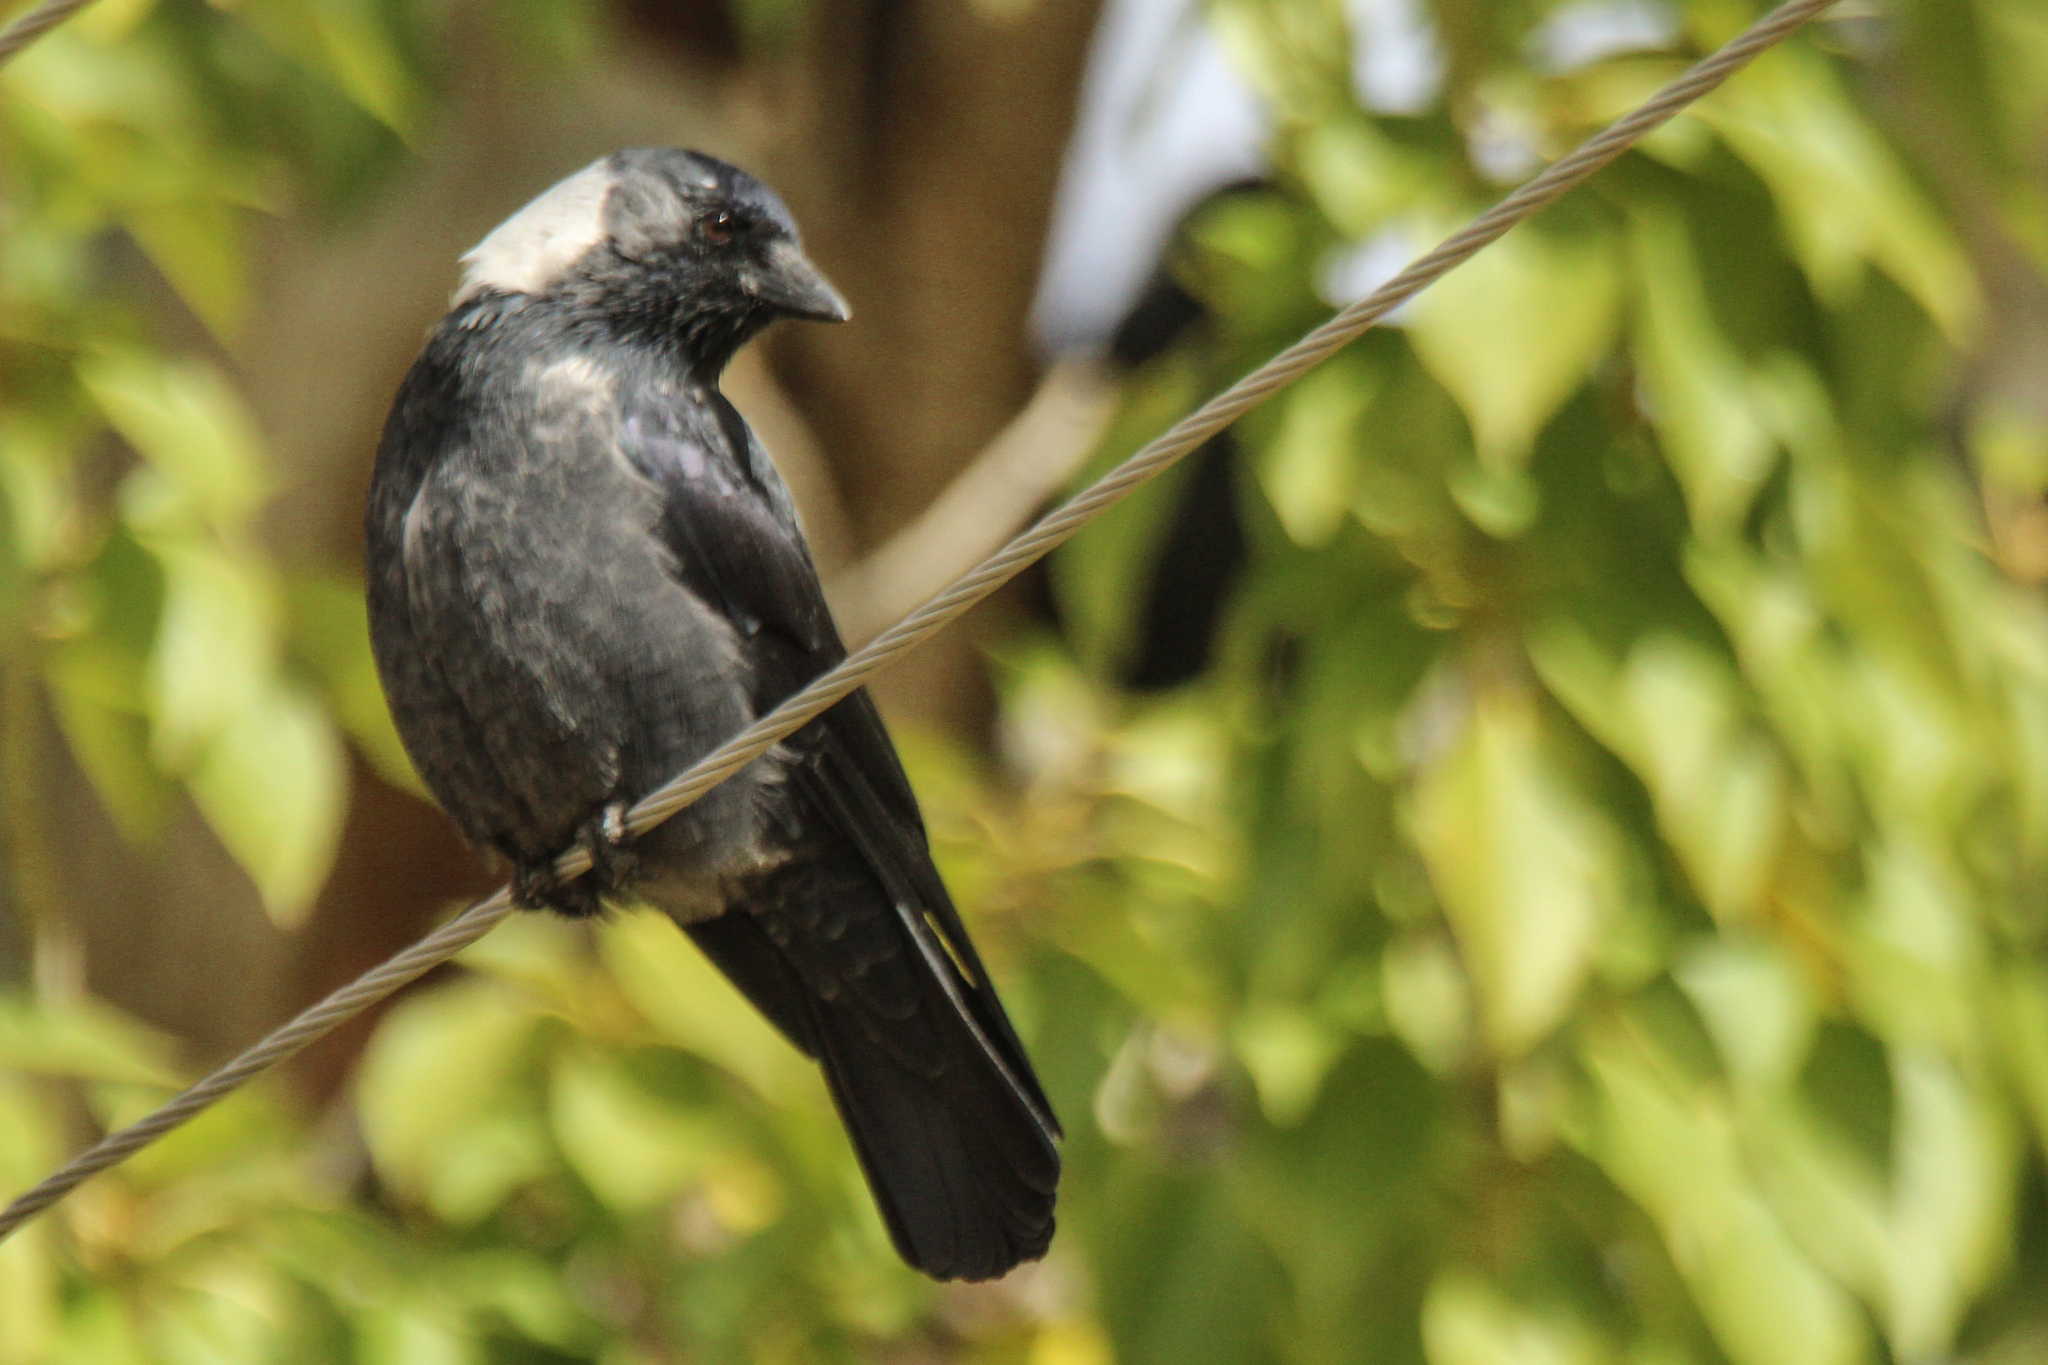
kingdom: Animalia
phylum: Chordata
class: Aves
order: Passeriformes
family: Corvidae
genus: Coloeus
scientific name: Coloeus dauuricus
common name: Daurian jackdaw
